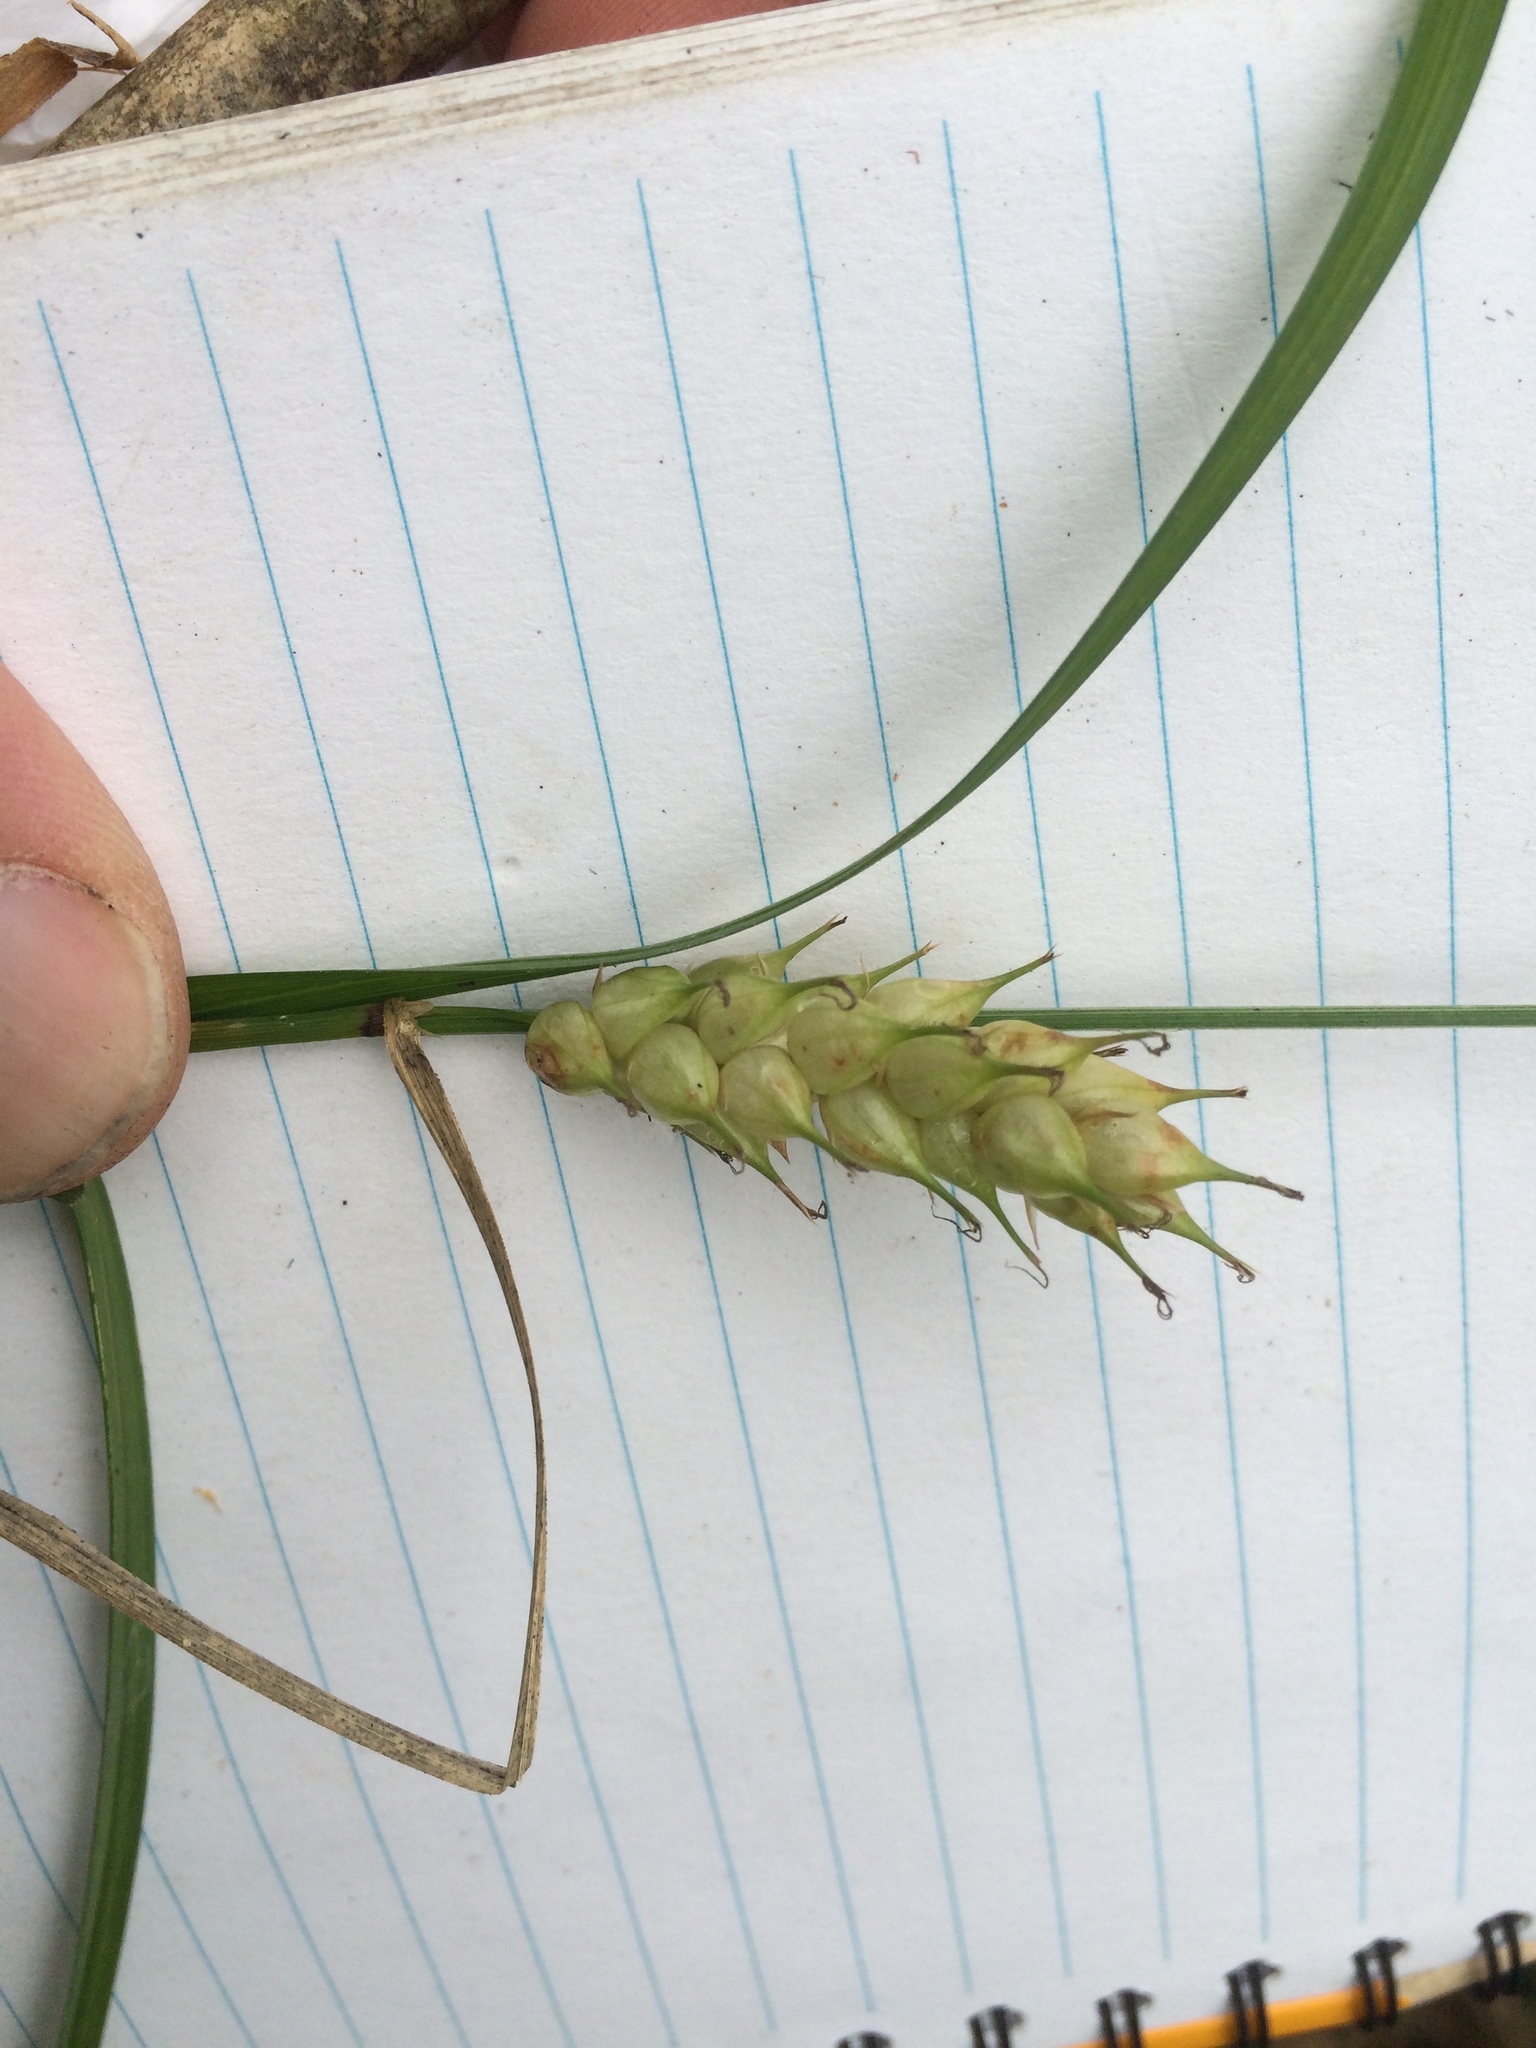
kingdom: Plantae
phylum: Tracheophyta
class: Liliopsida
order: Poales
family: Cyperaceae
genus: Carex
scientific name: Carex tuckermanii
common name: Tuckerman's sedge
